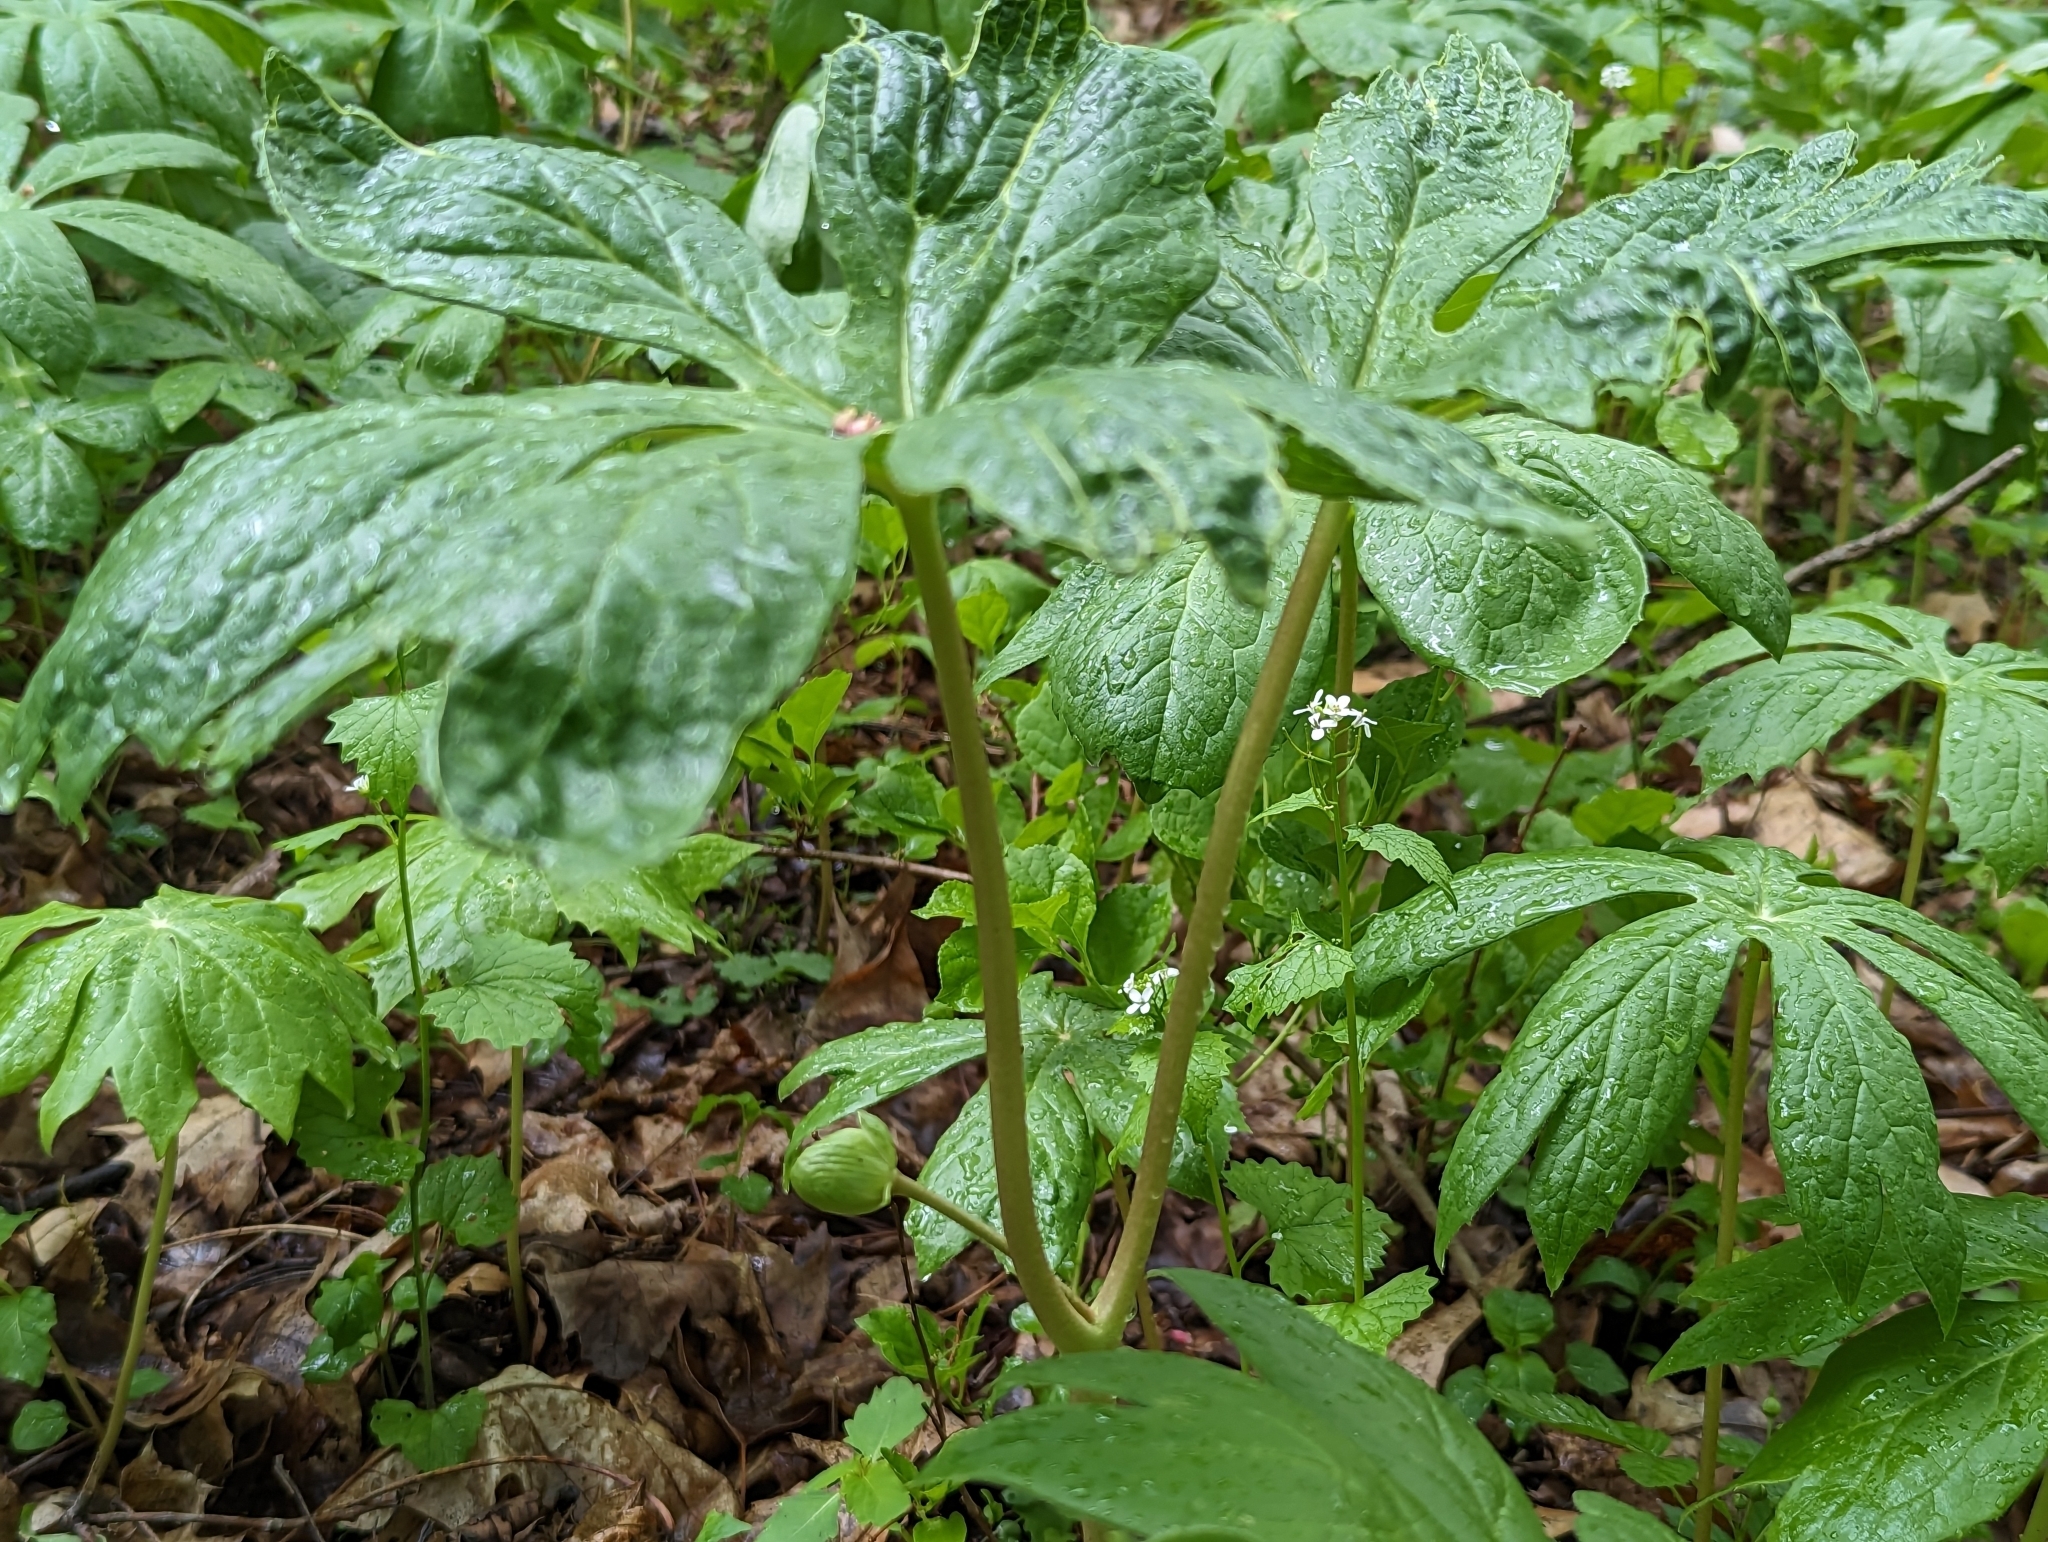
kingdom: Plantae
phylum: Tracheophyta
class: Magnoliopsida
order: Ranunculales
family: Berberidaceae
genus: Podophyllum
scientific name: Podophyllum peltatum
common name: Wild mandrake
